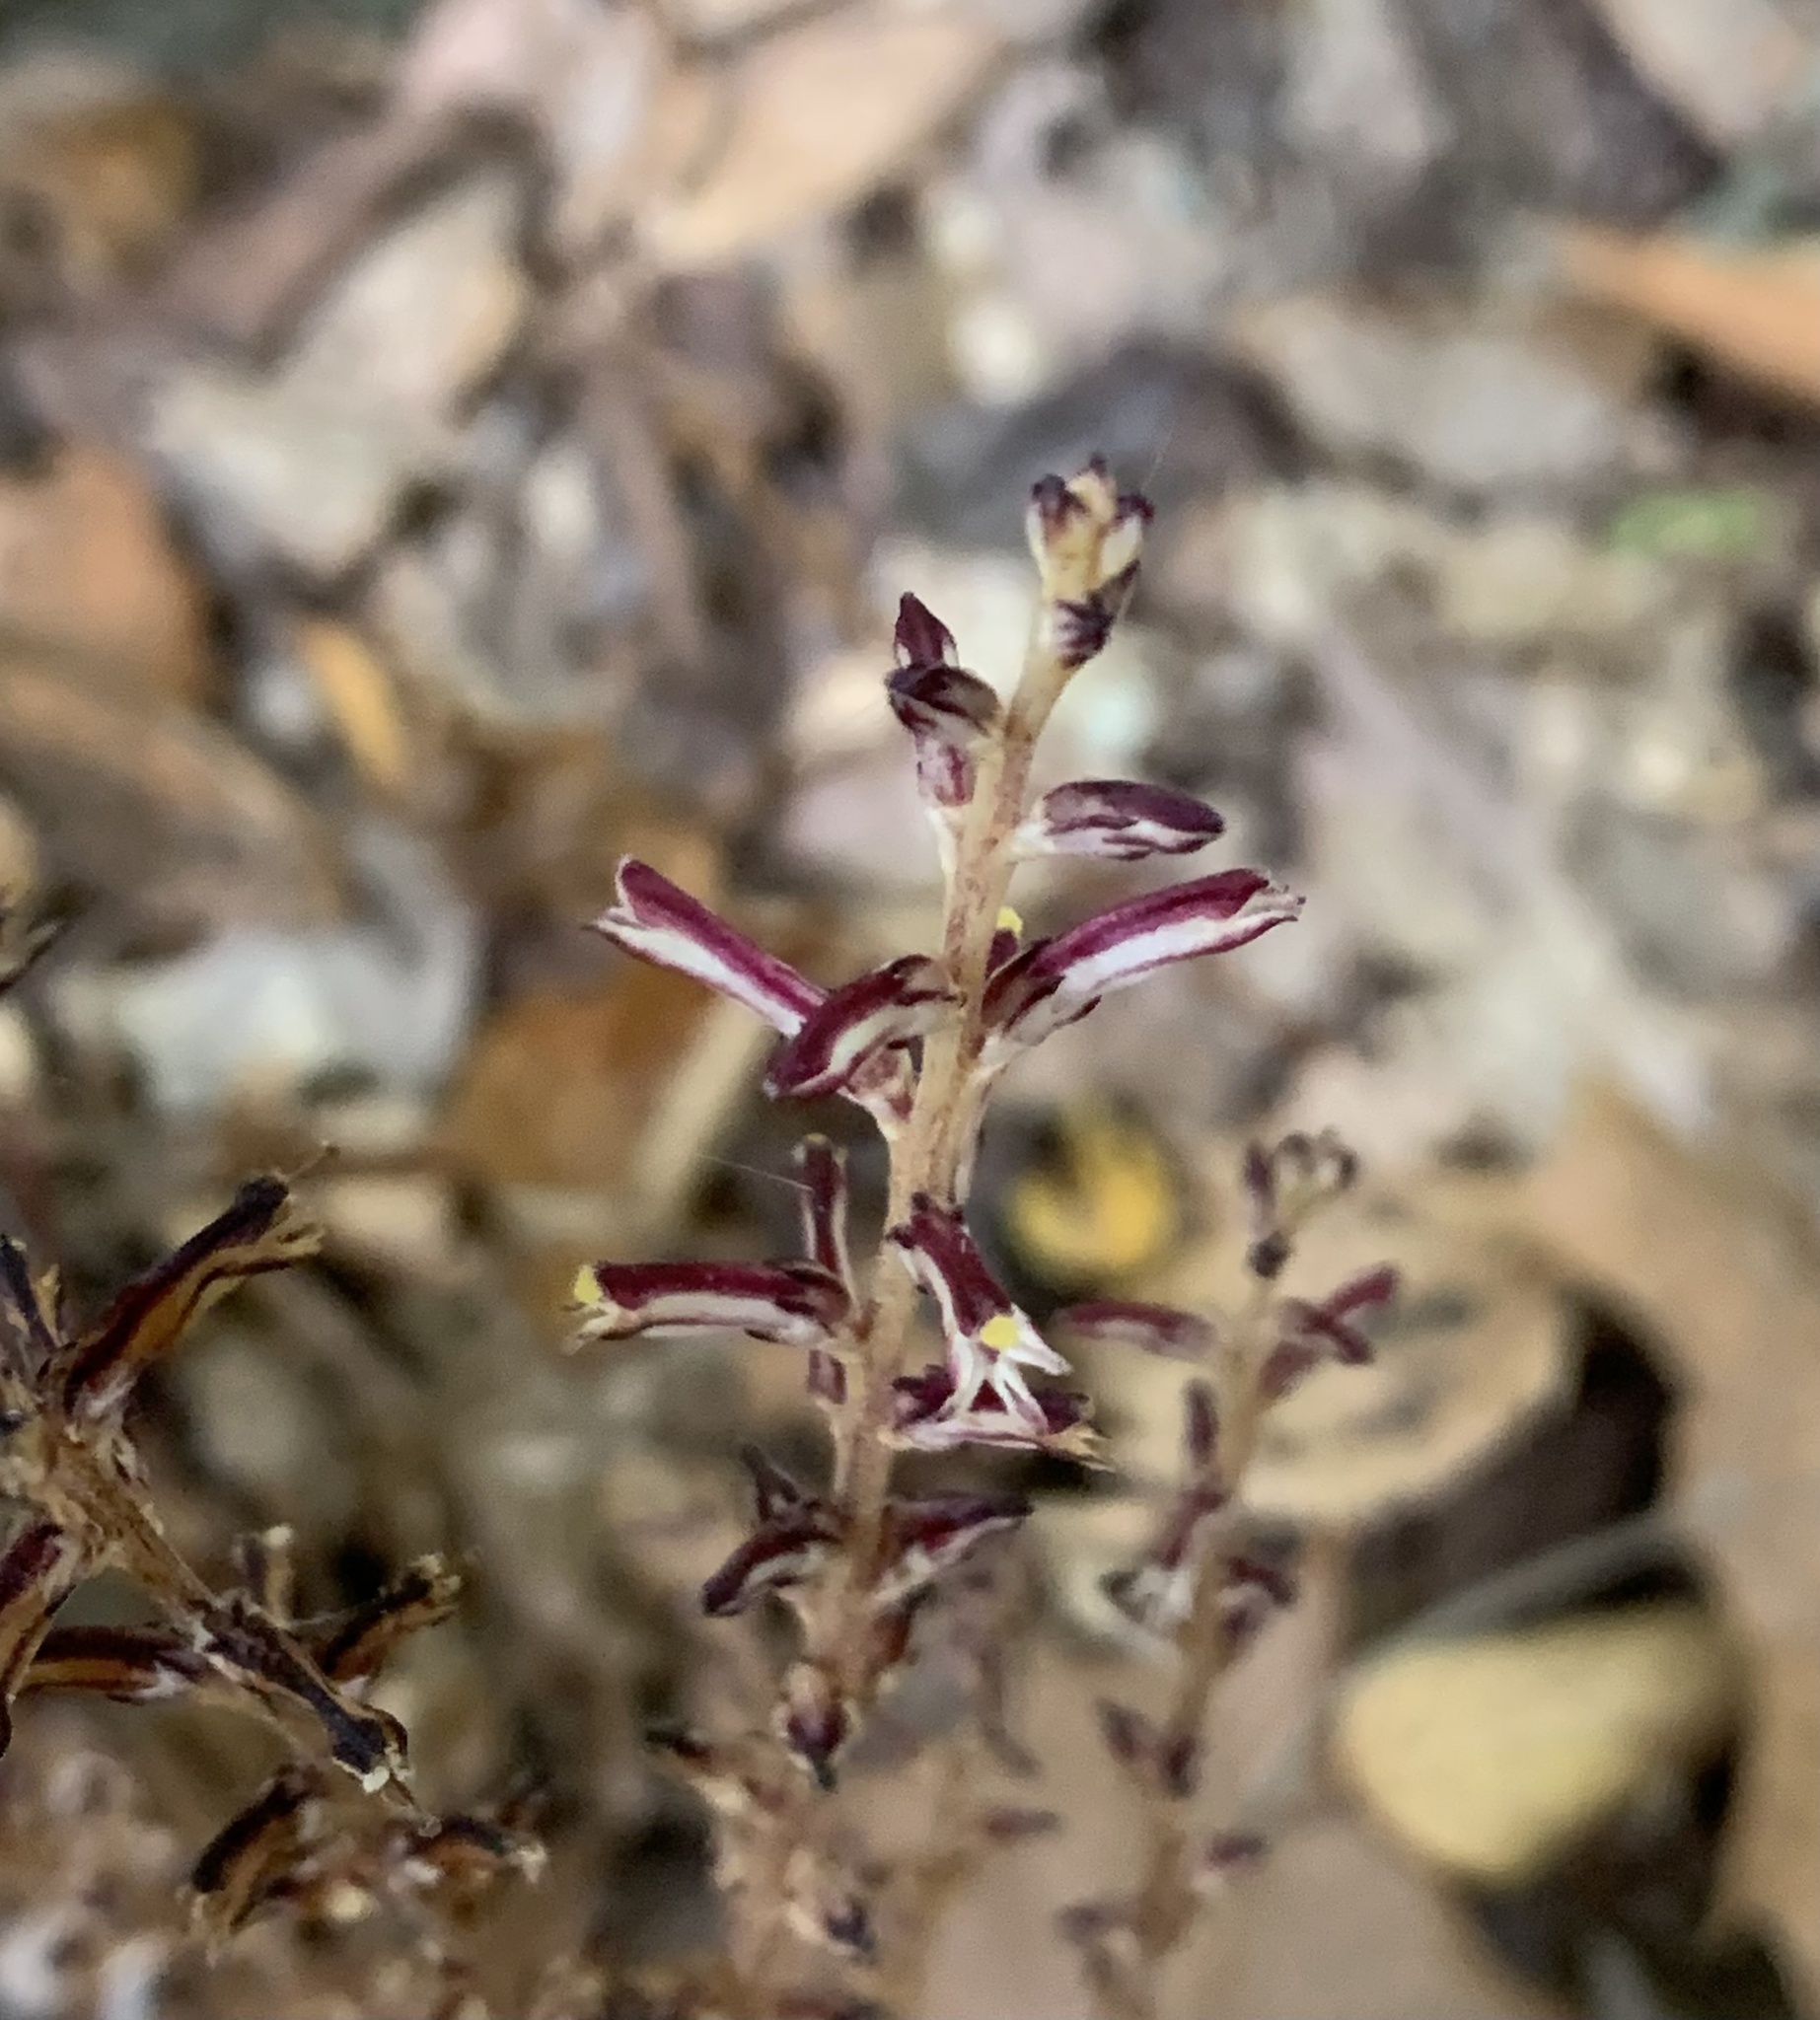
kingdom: Plantae
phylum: Tracheophyta
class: Magnoliopsida
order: Lamiales
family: Orobanchaceae
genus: Epifagus
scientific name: Epifagus virginiana
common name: Beechdrops
